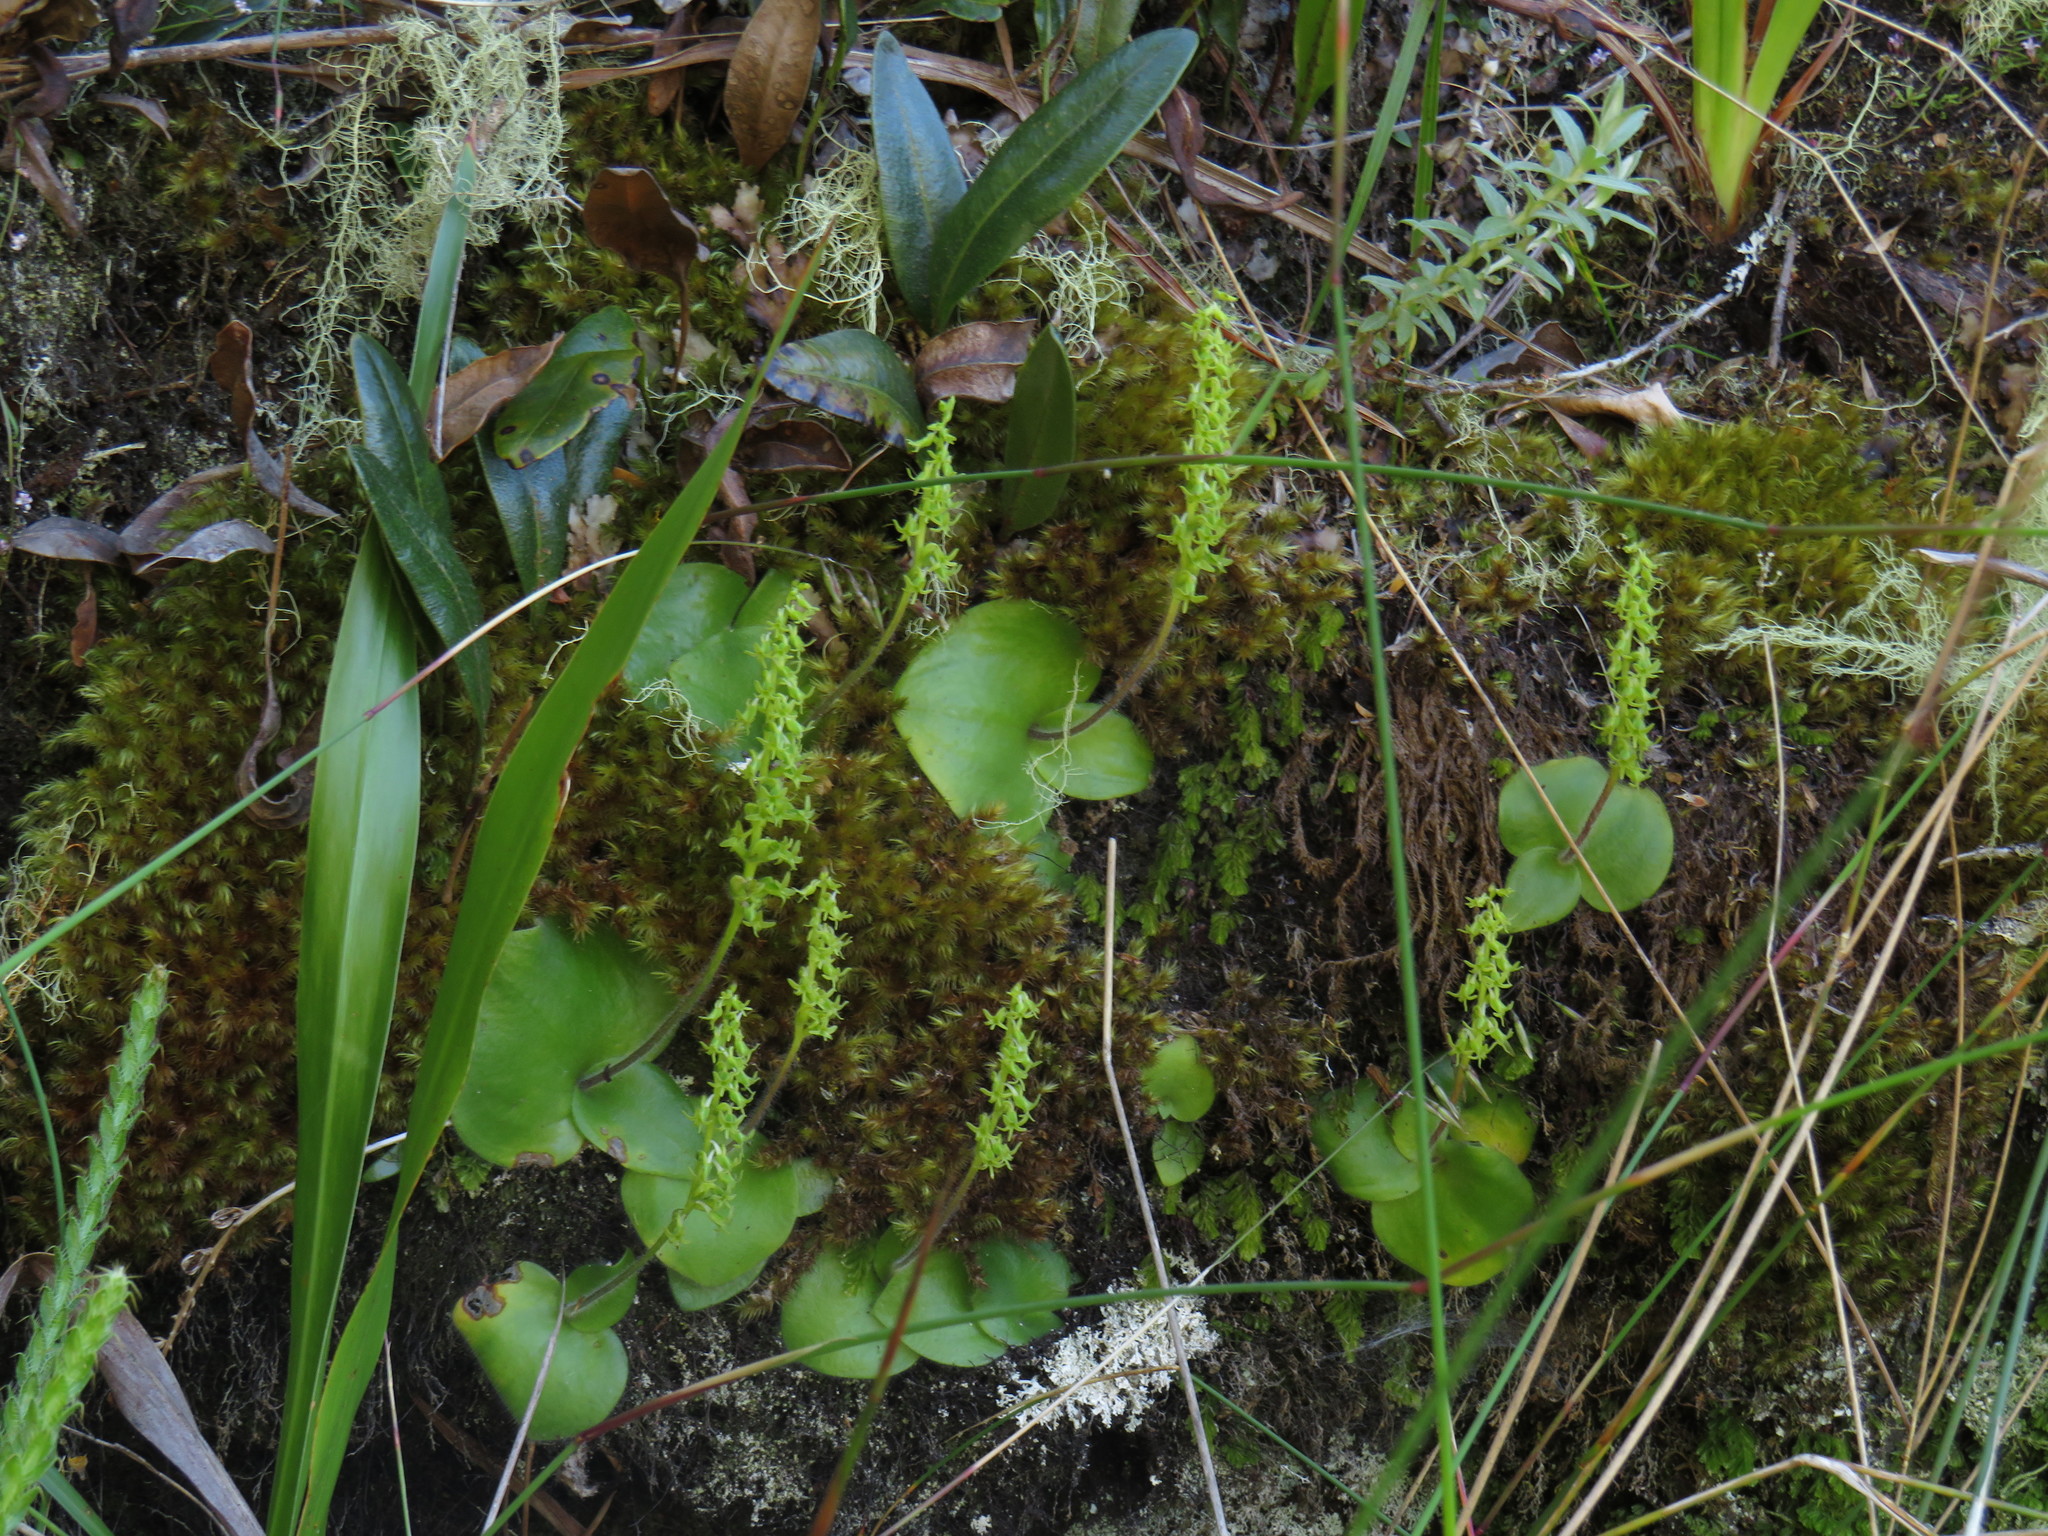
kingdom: Plantae
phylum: Tracheophyta
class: Liliopsida
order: Asparagales
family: Orchidaceae
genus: Holothrix
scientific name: Holothrix condensata
